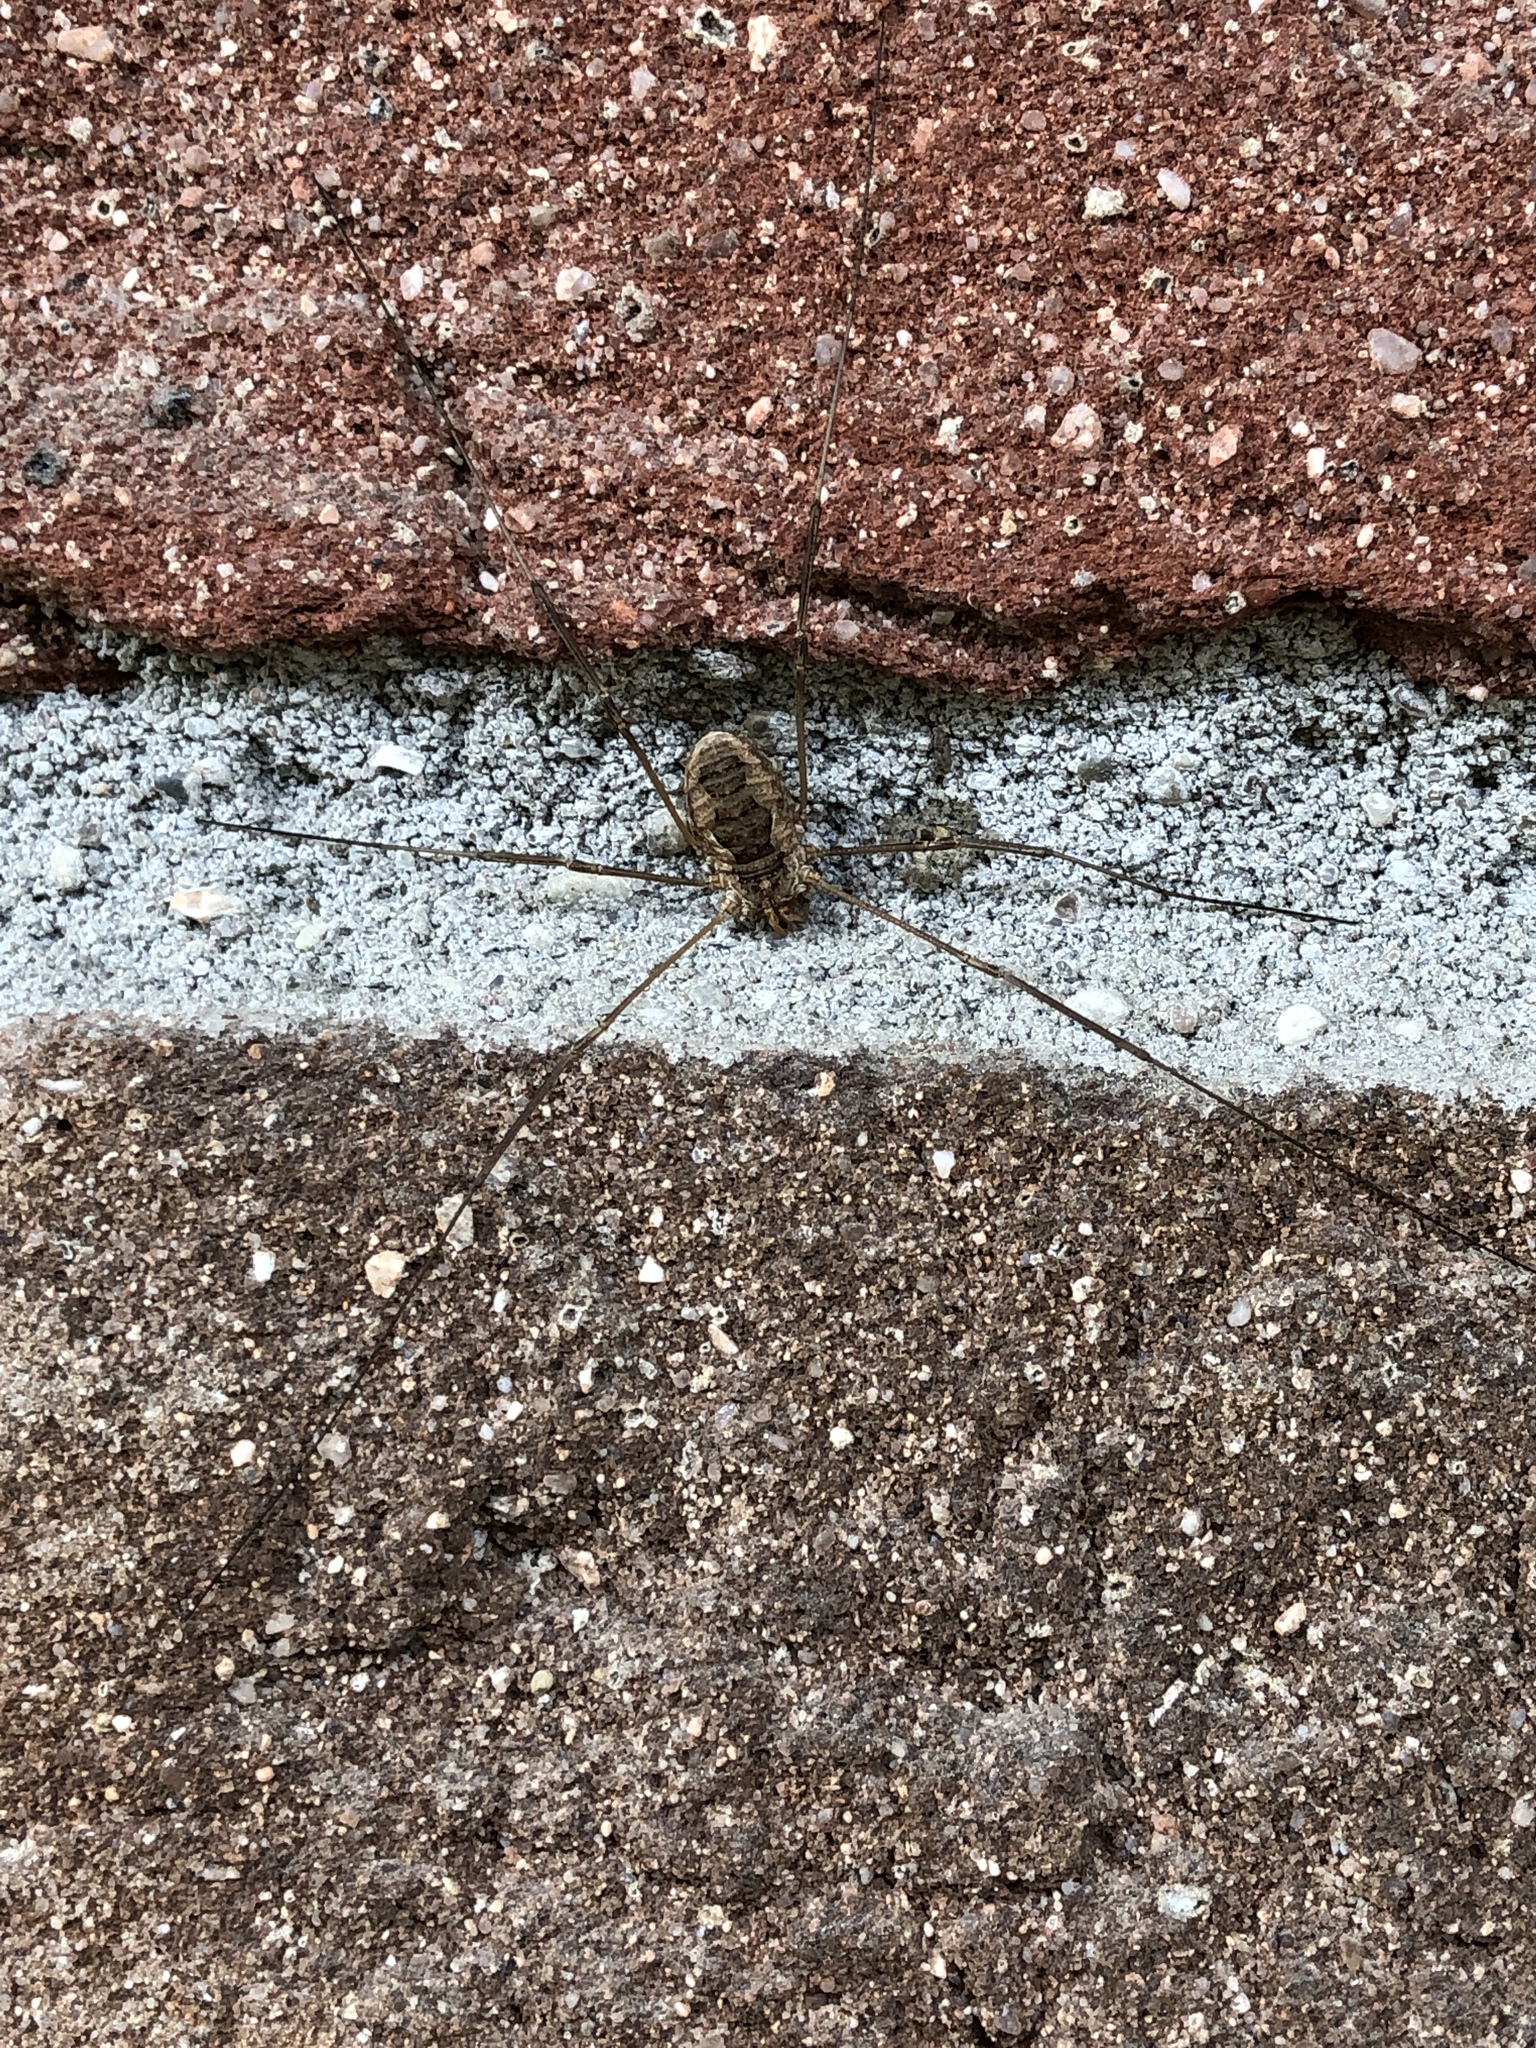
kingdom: Animalia
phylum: Arthropoda
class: Arachnida
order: Opiliones
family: Phalangiidae
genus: Phalangium
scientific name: Phalangium opilio
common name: Daddy longleg
